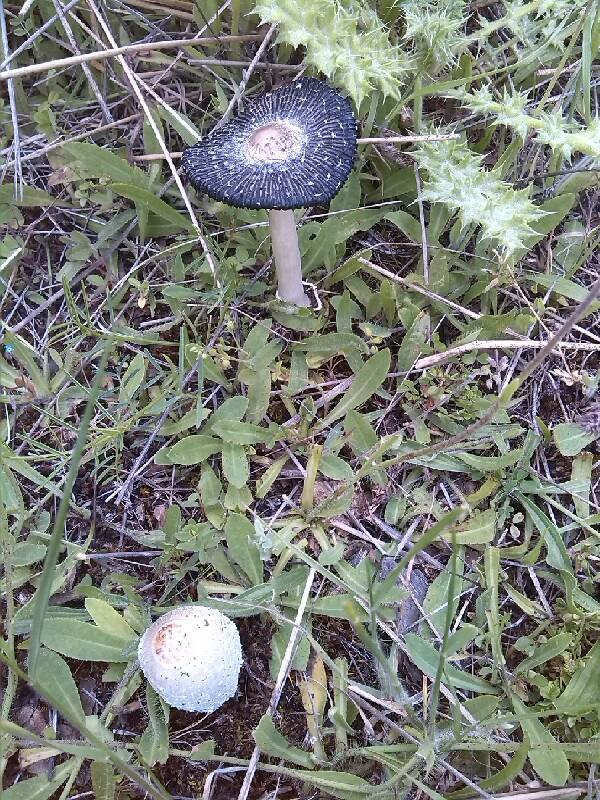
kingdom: Fungi
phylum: Basidiomycota
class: Agaricomycetes
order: Agaricales
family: Psathyrellaceae
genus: Coprinopsis
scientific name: Coprinopsis picacea
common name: Magpie inkcap
